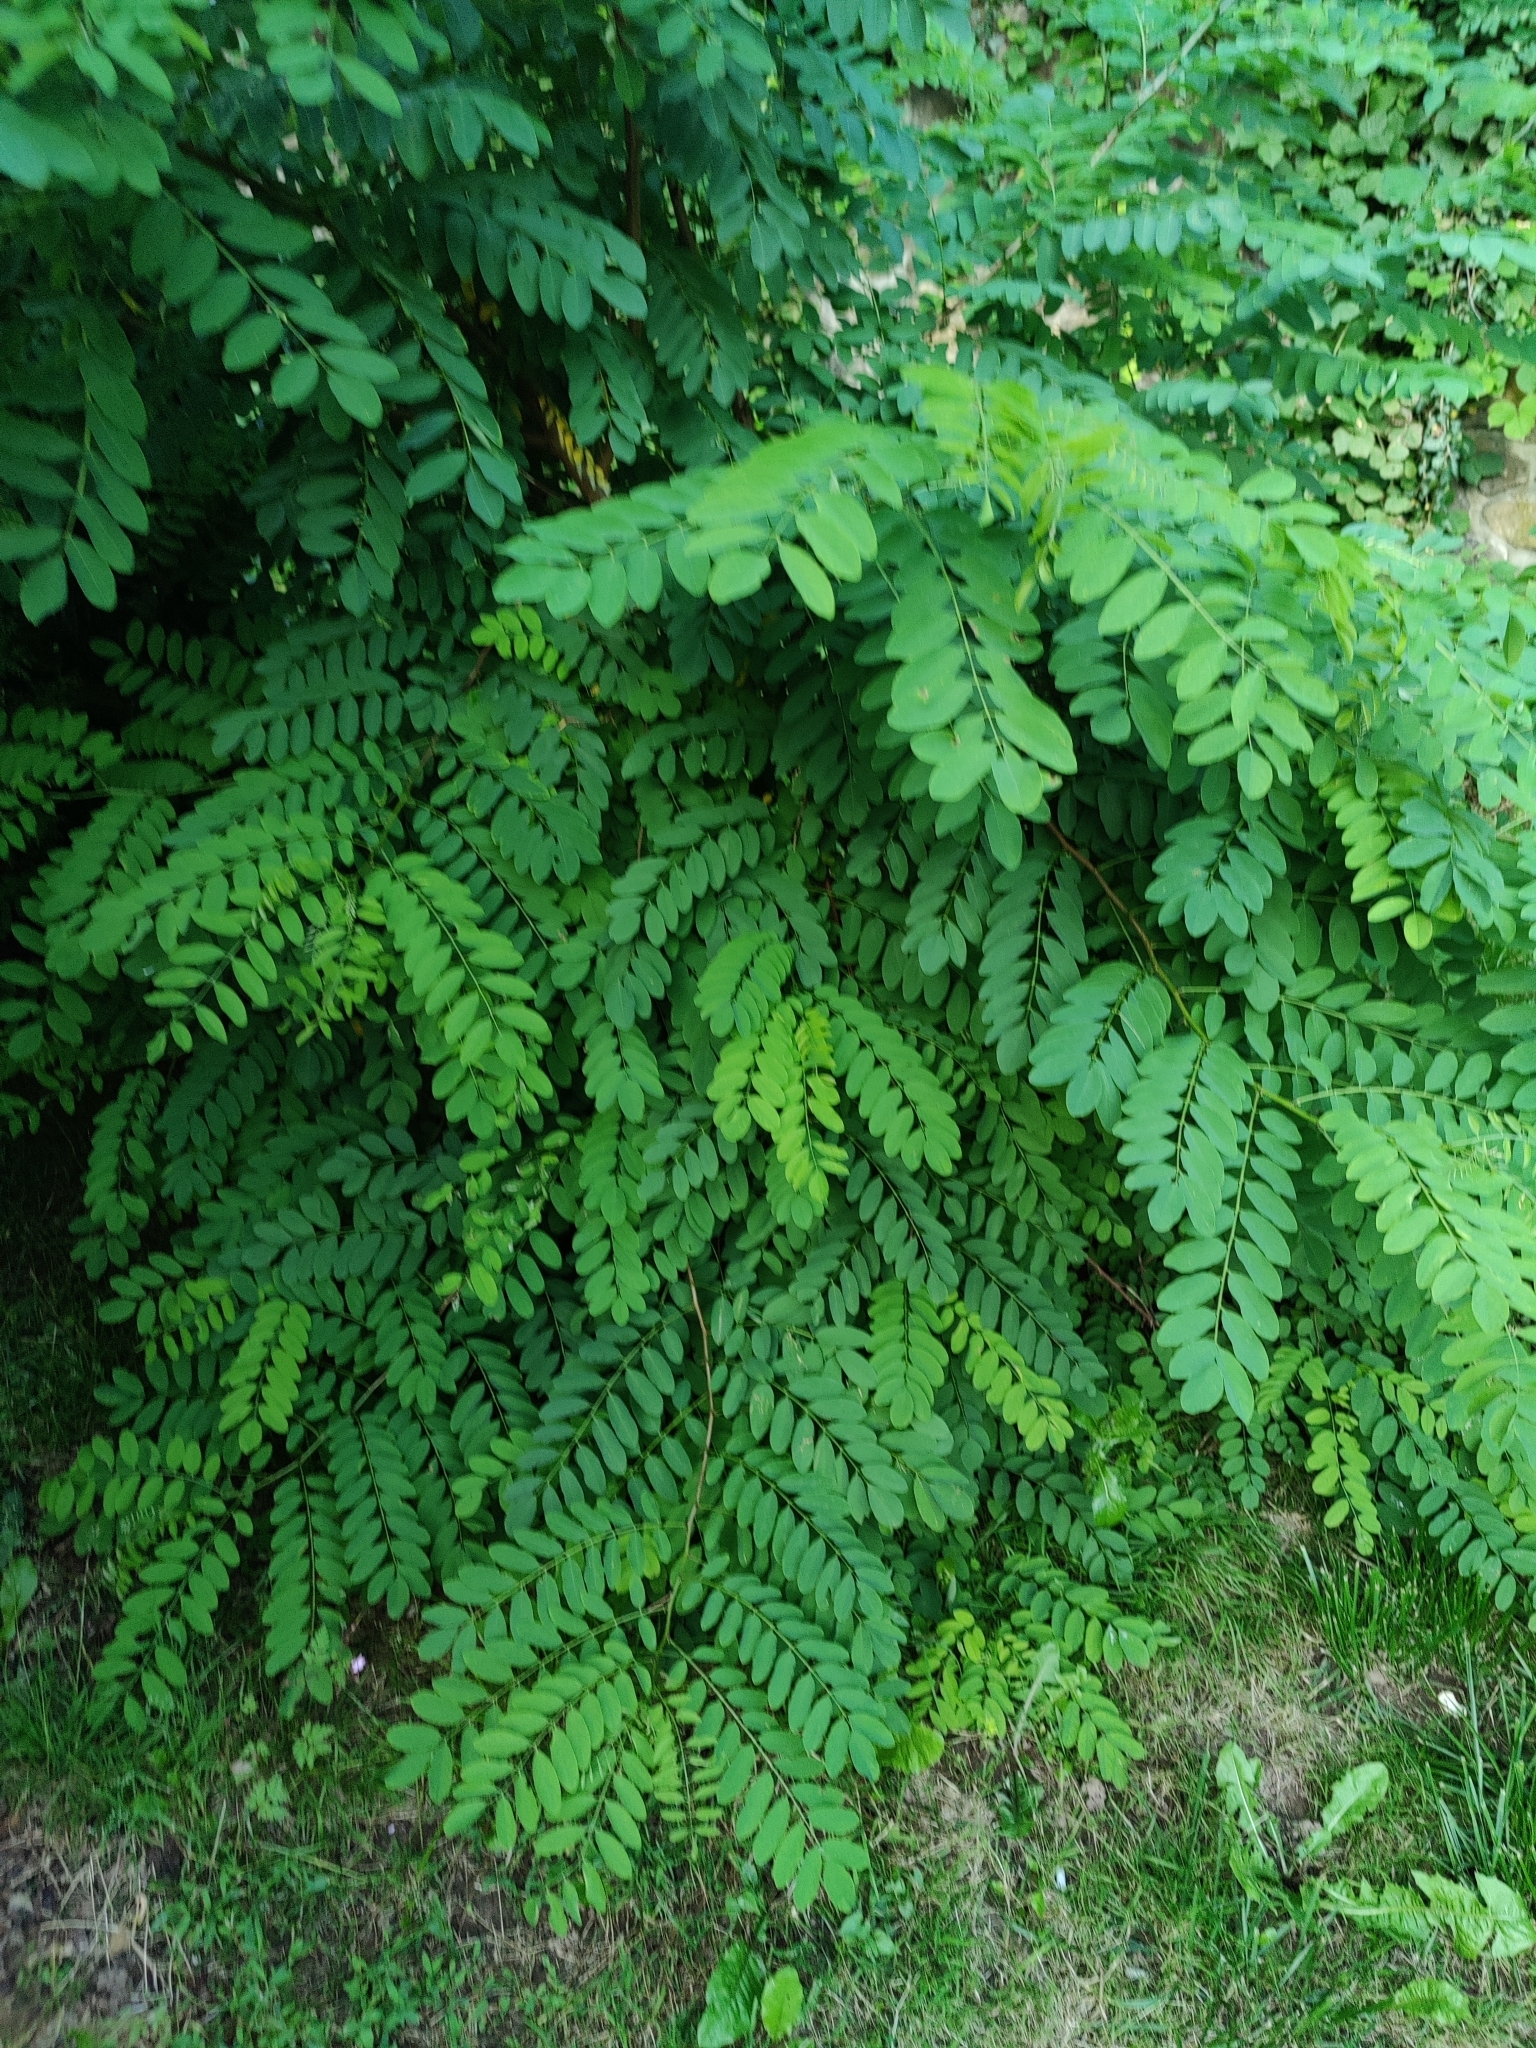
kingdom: Plantae
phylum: Tracheophyta
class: Magnoliopsida
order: Fabales
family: Fabaceae
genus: Robinia
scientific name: Robinia pseudoacacia
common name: Black locust
